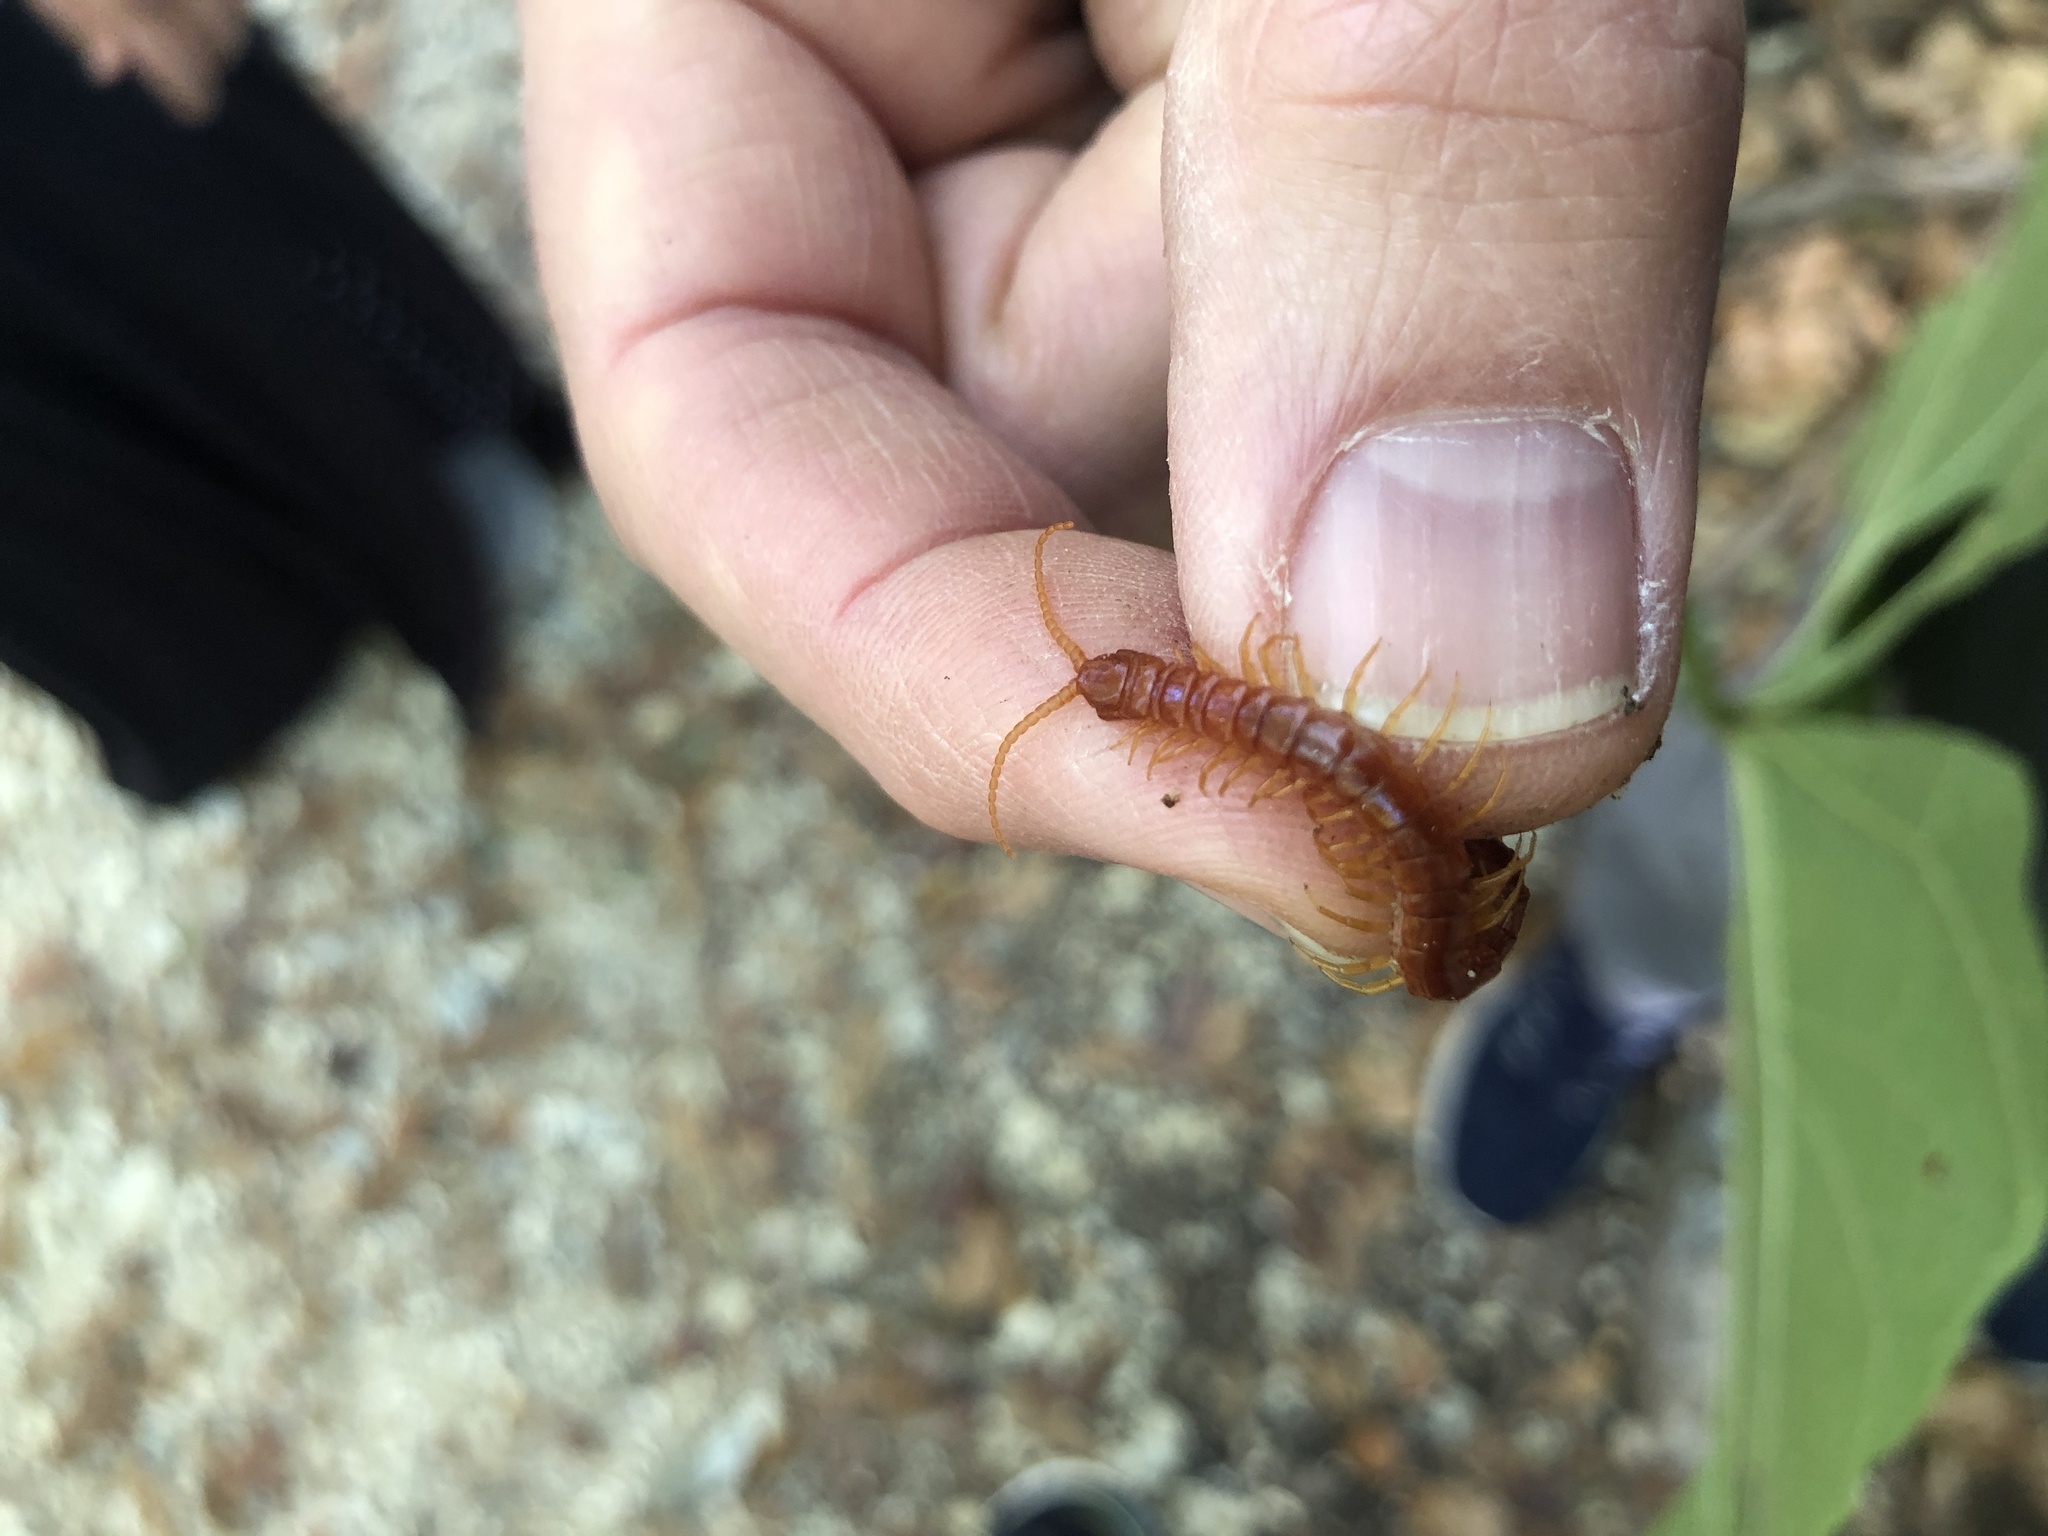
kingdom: Animalia
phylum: Arthropoda
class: Chilopoda
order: Scolopendromorpha
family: Scolopocryptopidae
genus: Scolopocryptops
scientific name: Scolopocryptops sexspinosus
